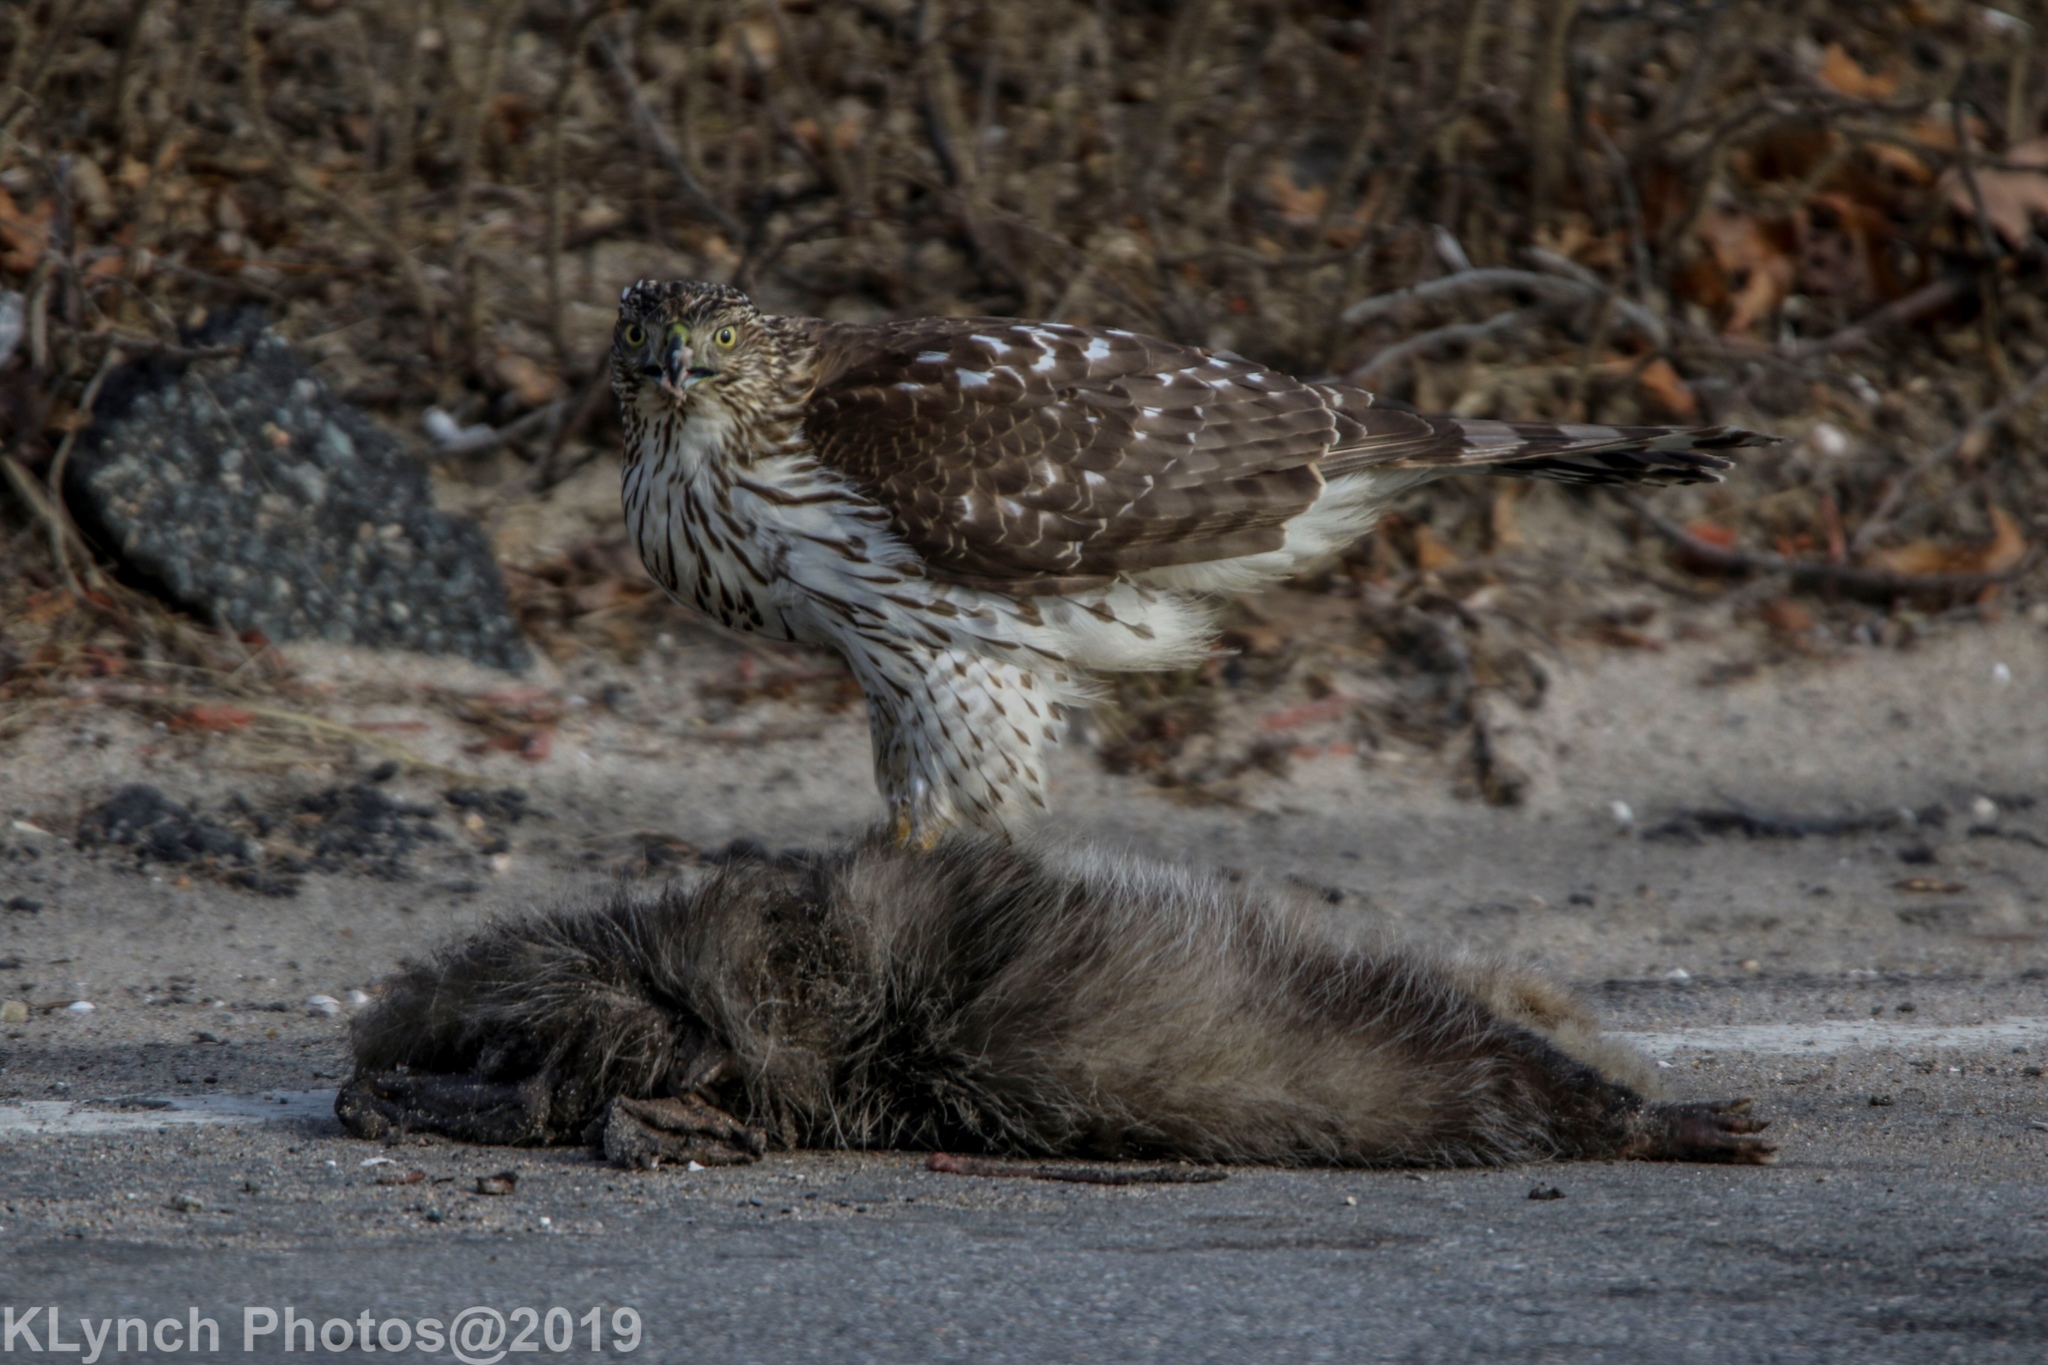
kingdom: Animalia
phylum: Chordata
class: Aves
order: Accipitriformes
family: Accipitridae
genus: Accipiter
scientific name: Accipiter cooperii
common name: Cooper's hawk
